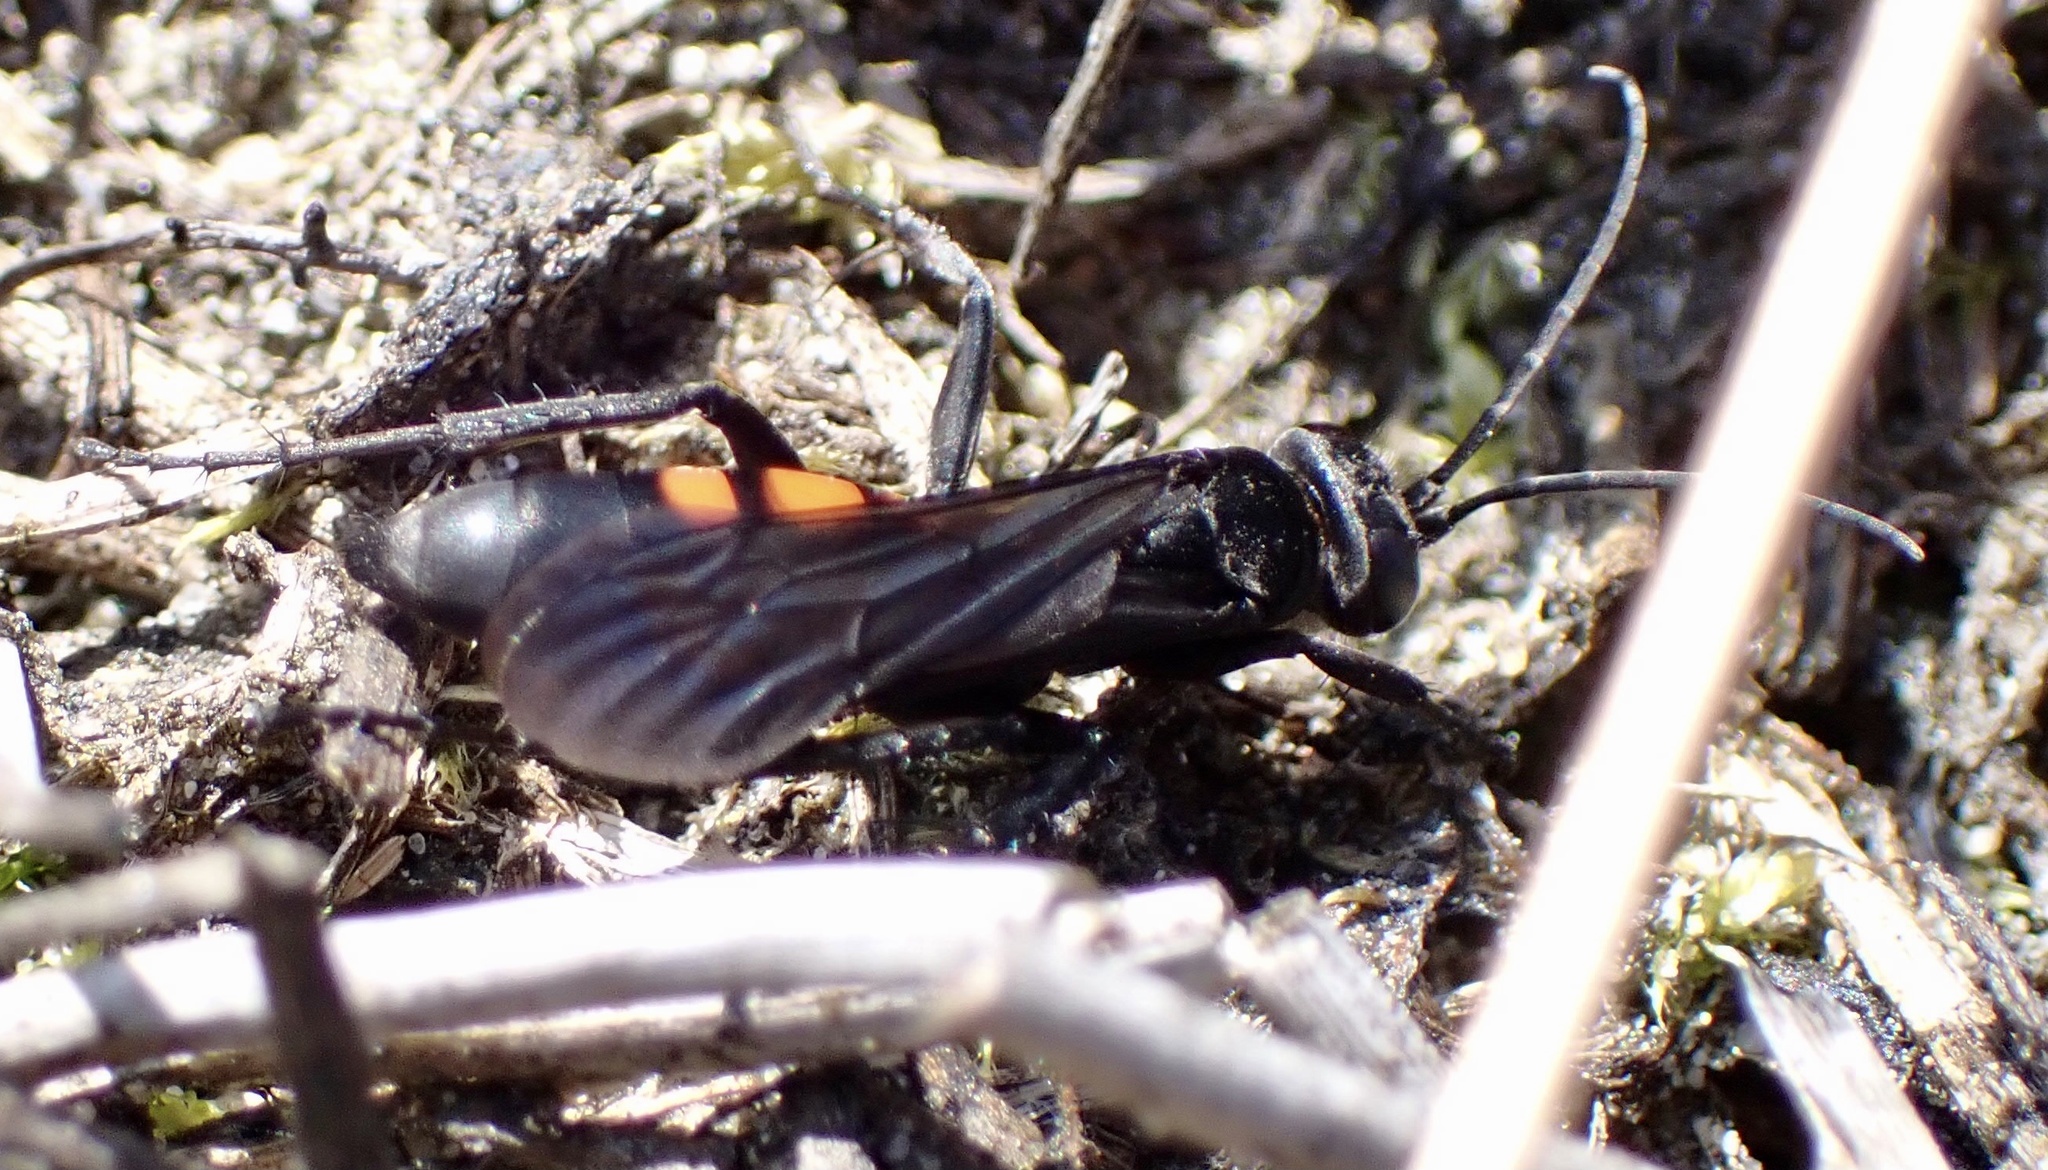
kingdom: Animalia
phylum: Arthropoda
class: Insecta
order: Hymenoptera
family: Pompilidae
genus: Anoplius
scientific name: Anoplius viaticus
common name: Black banded spider wasp
